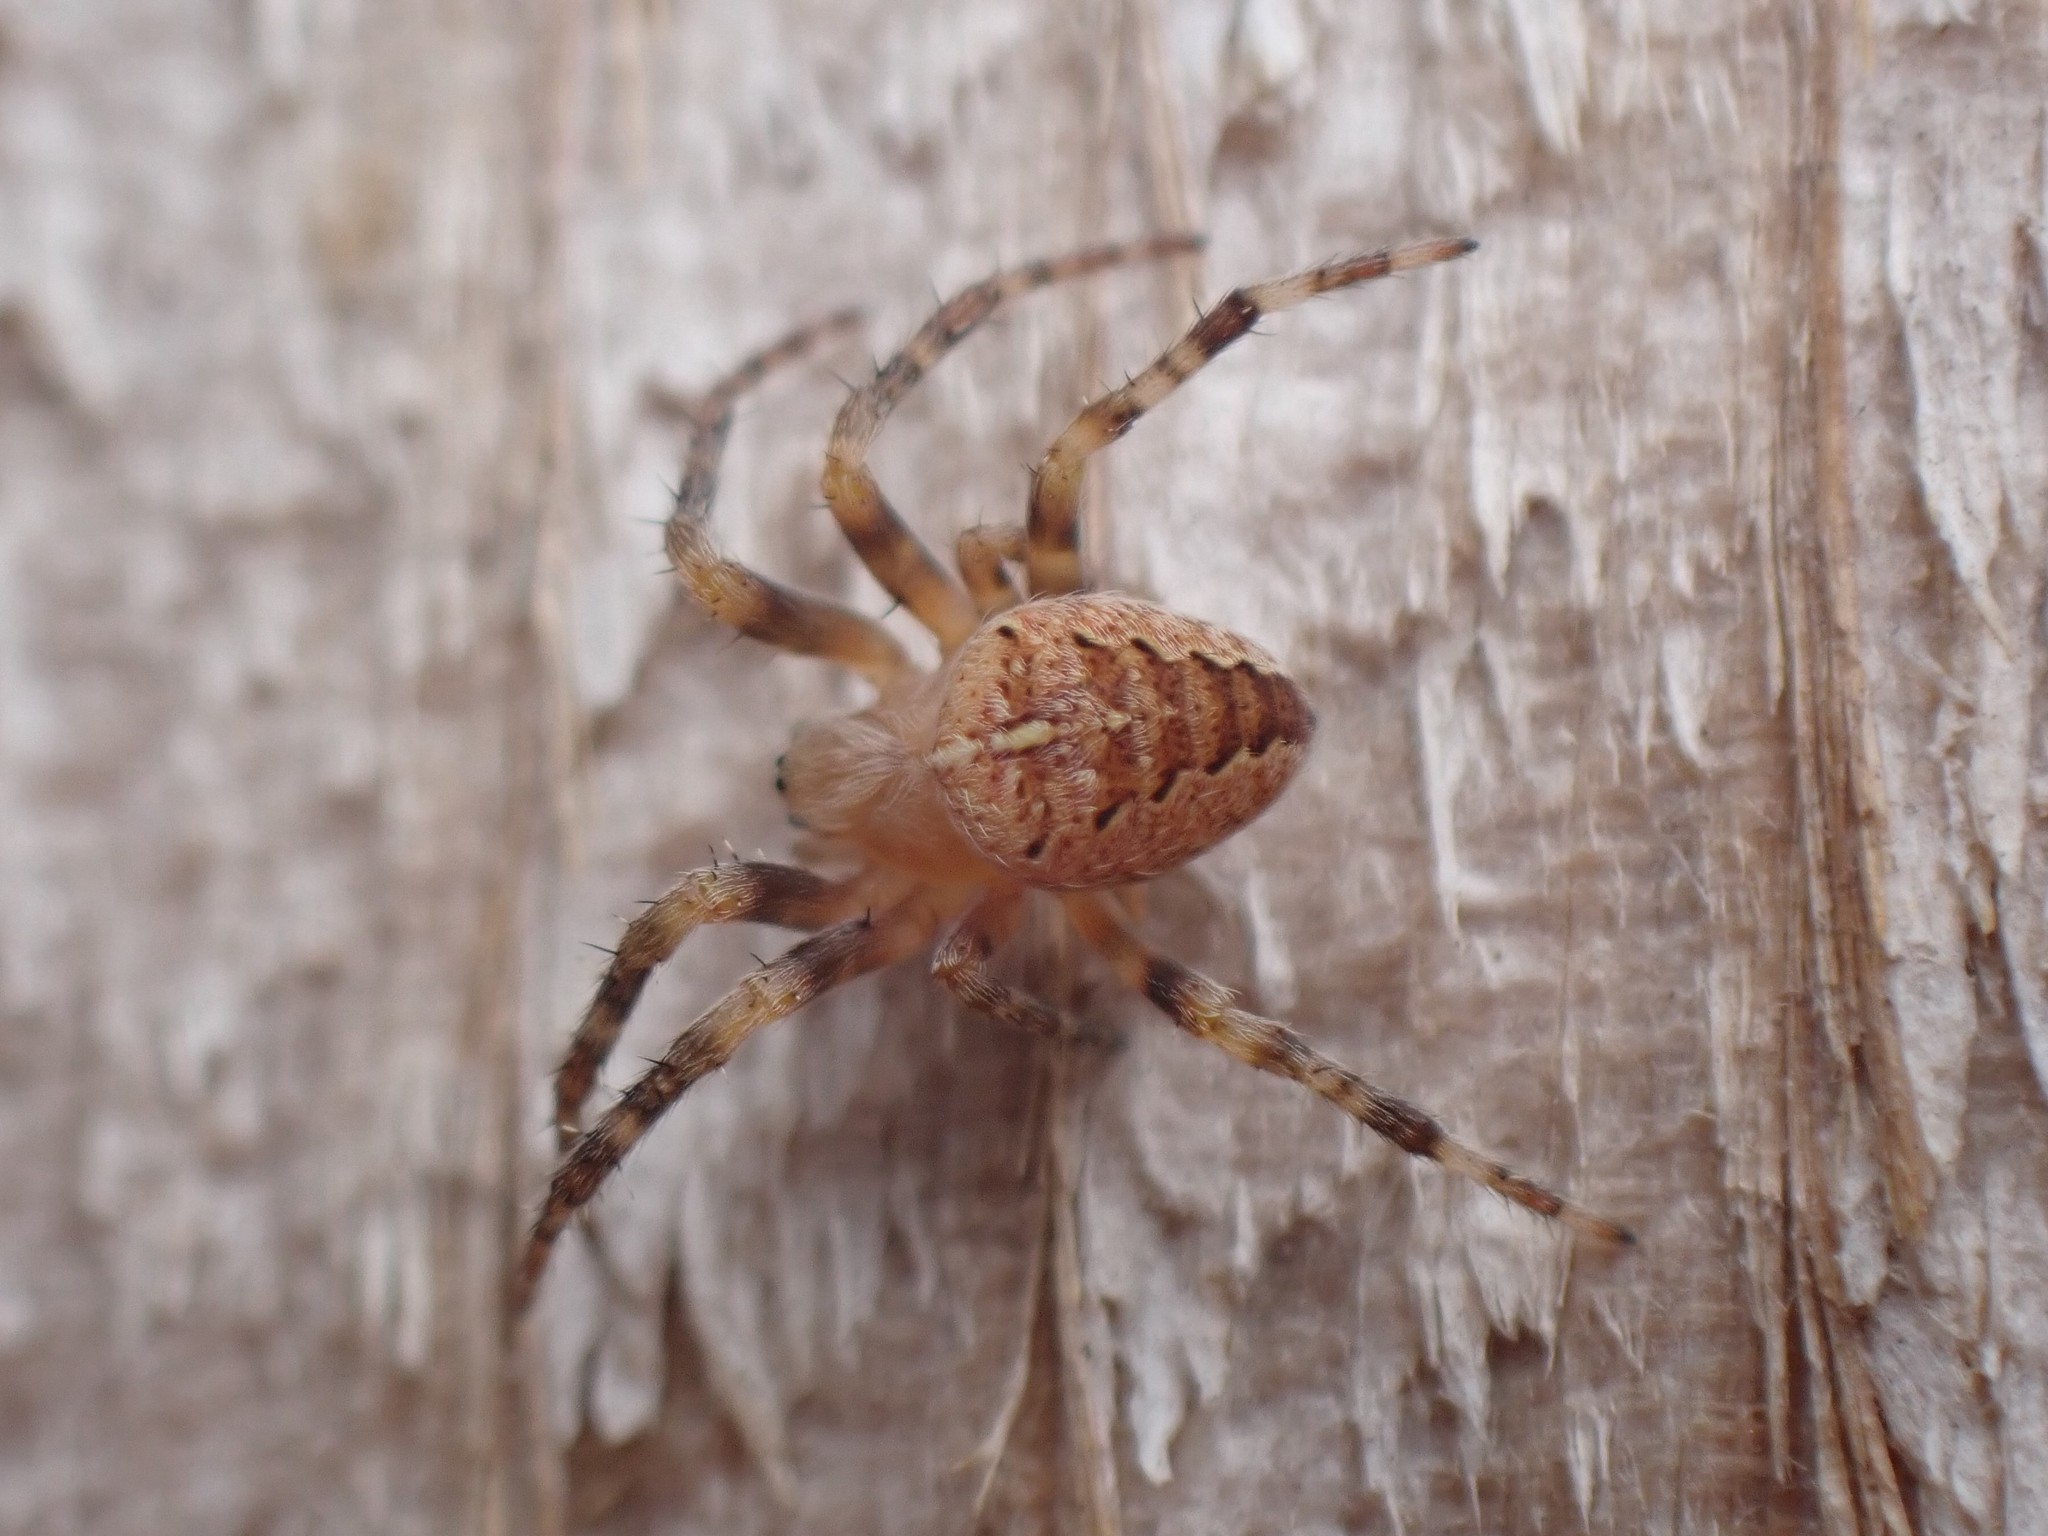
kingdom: Animalia
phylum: Arthropoda
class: Arachnida
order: Araneae
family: Araneidae
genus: Araneus
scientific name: Araneus diadematus
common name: Cross orbweaver
